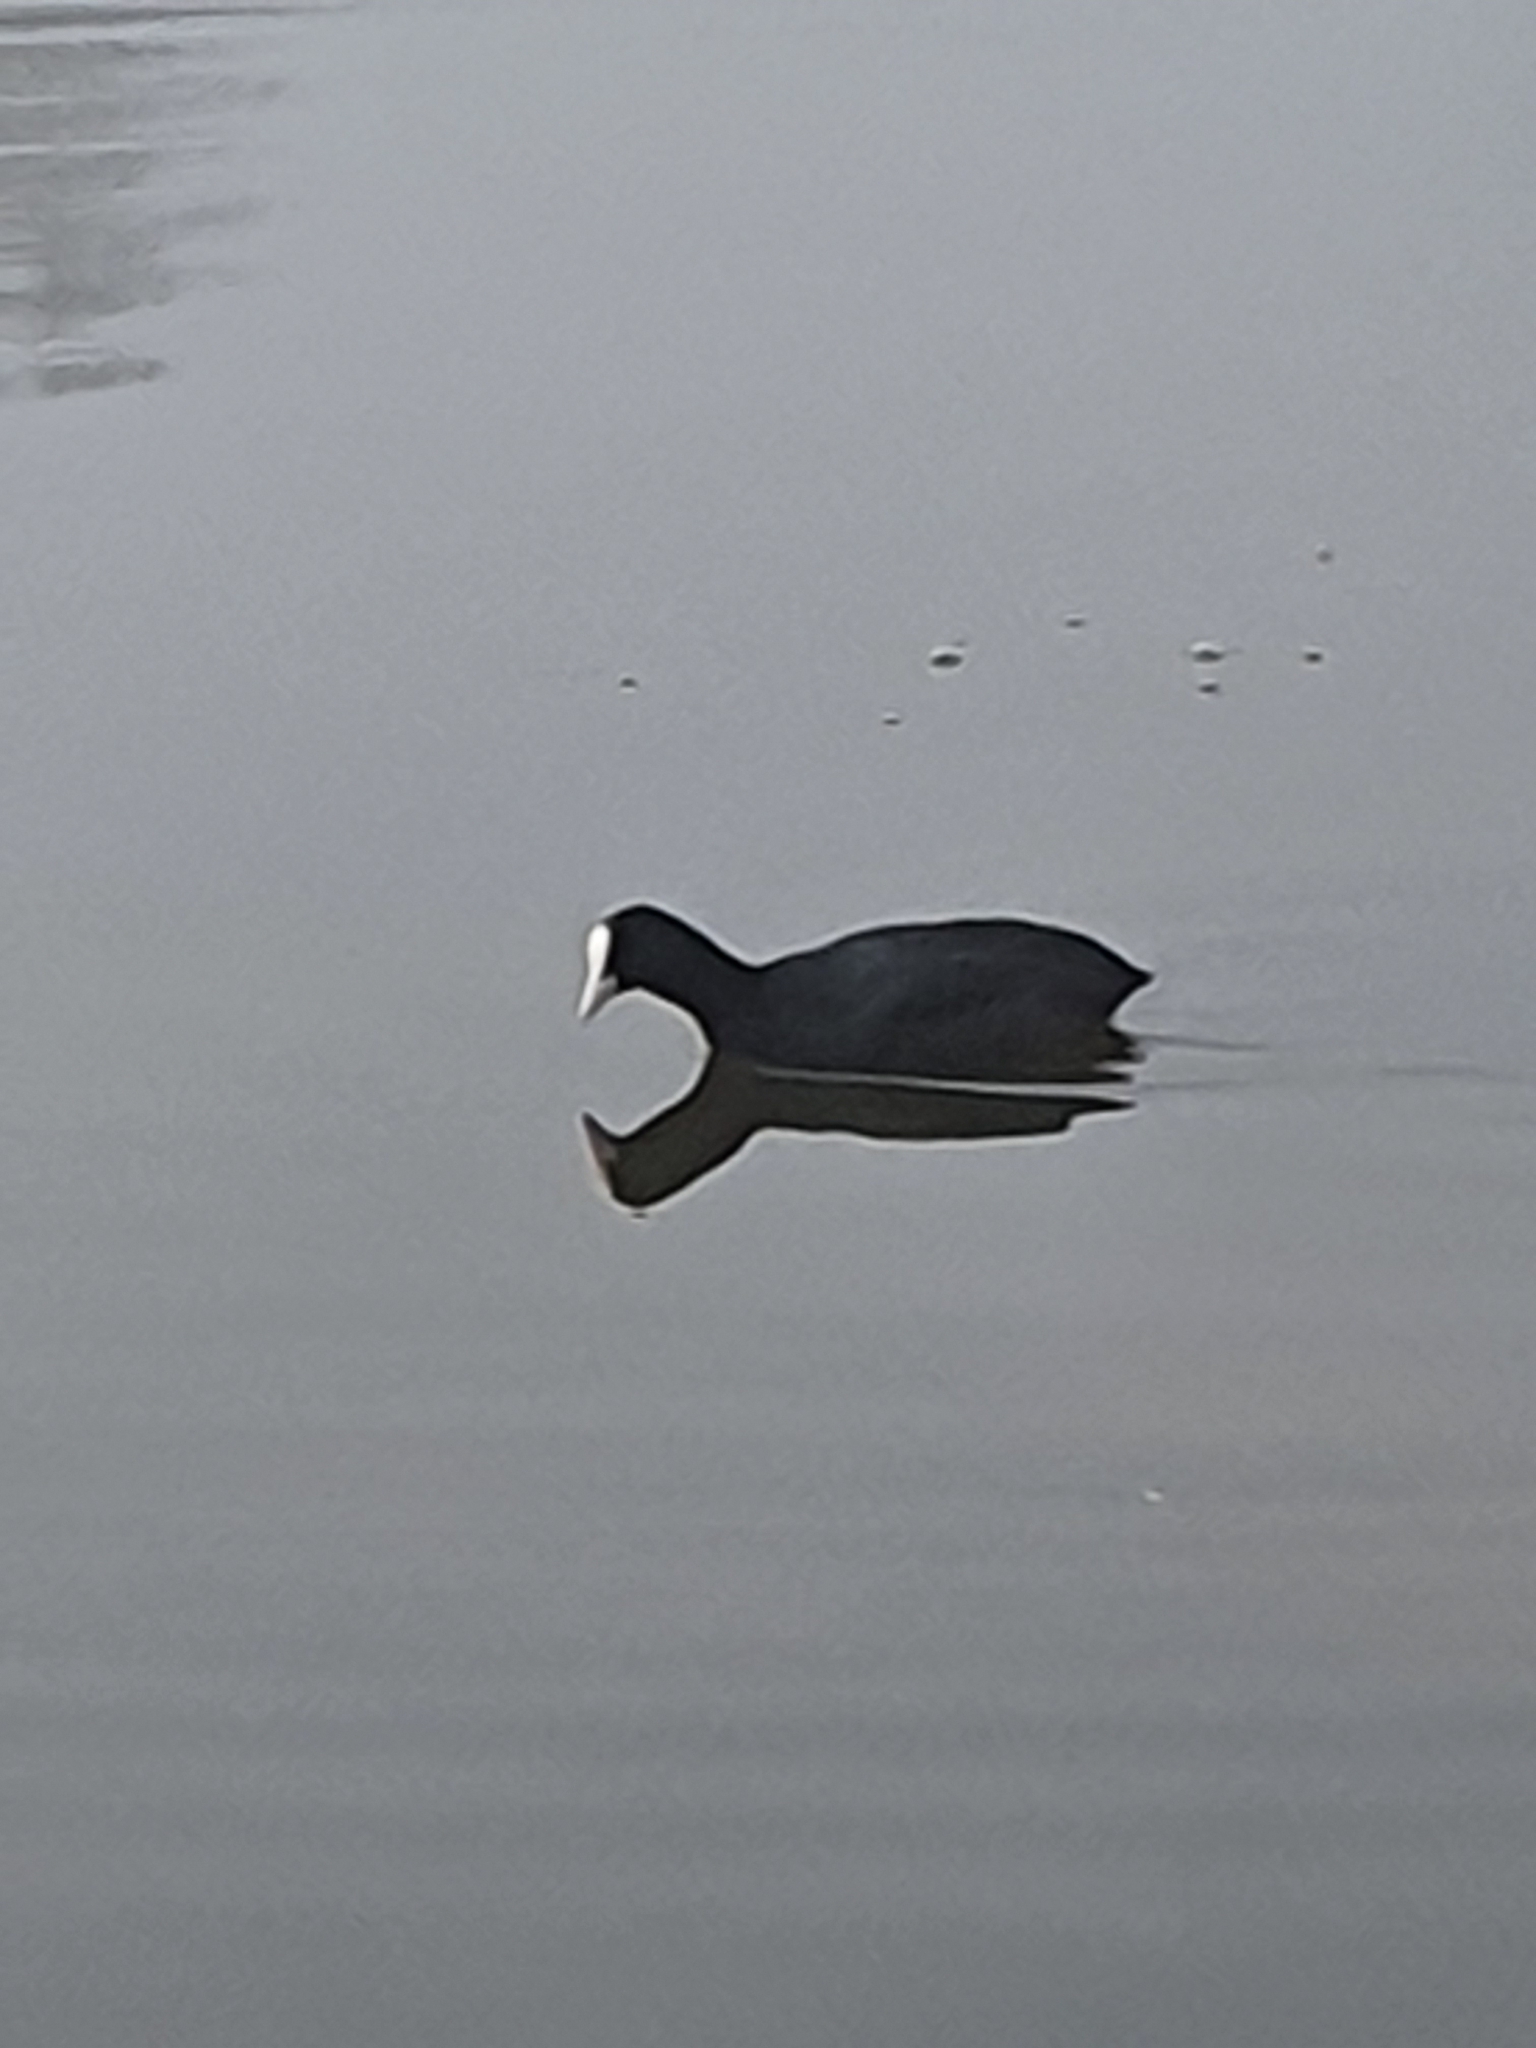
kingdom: Animalia
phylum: Chordata
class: Aves
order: Gruiformes
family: Rallidae
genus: Fulica
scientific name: Fulica atra
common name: Eurasian coot
